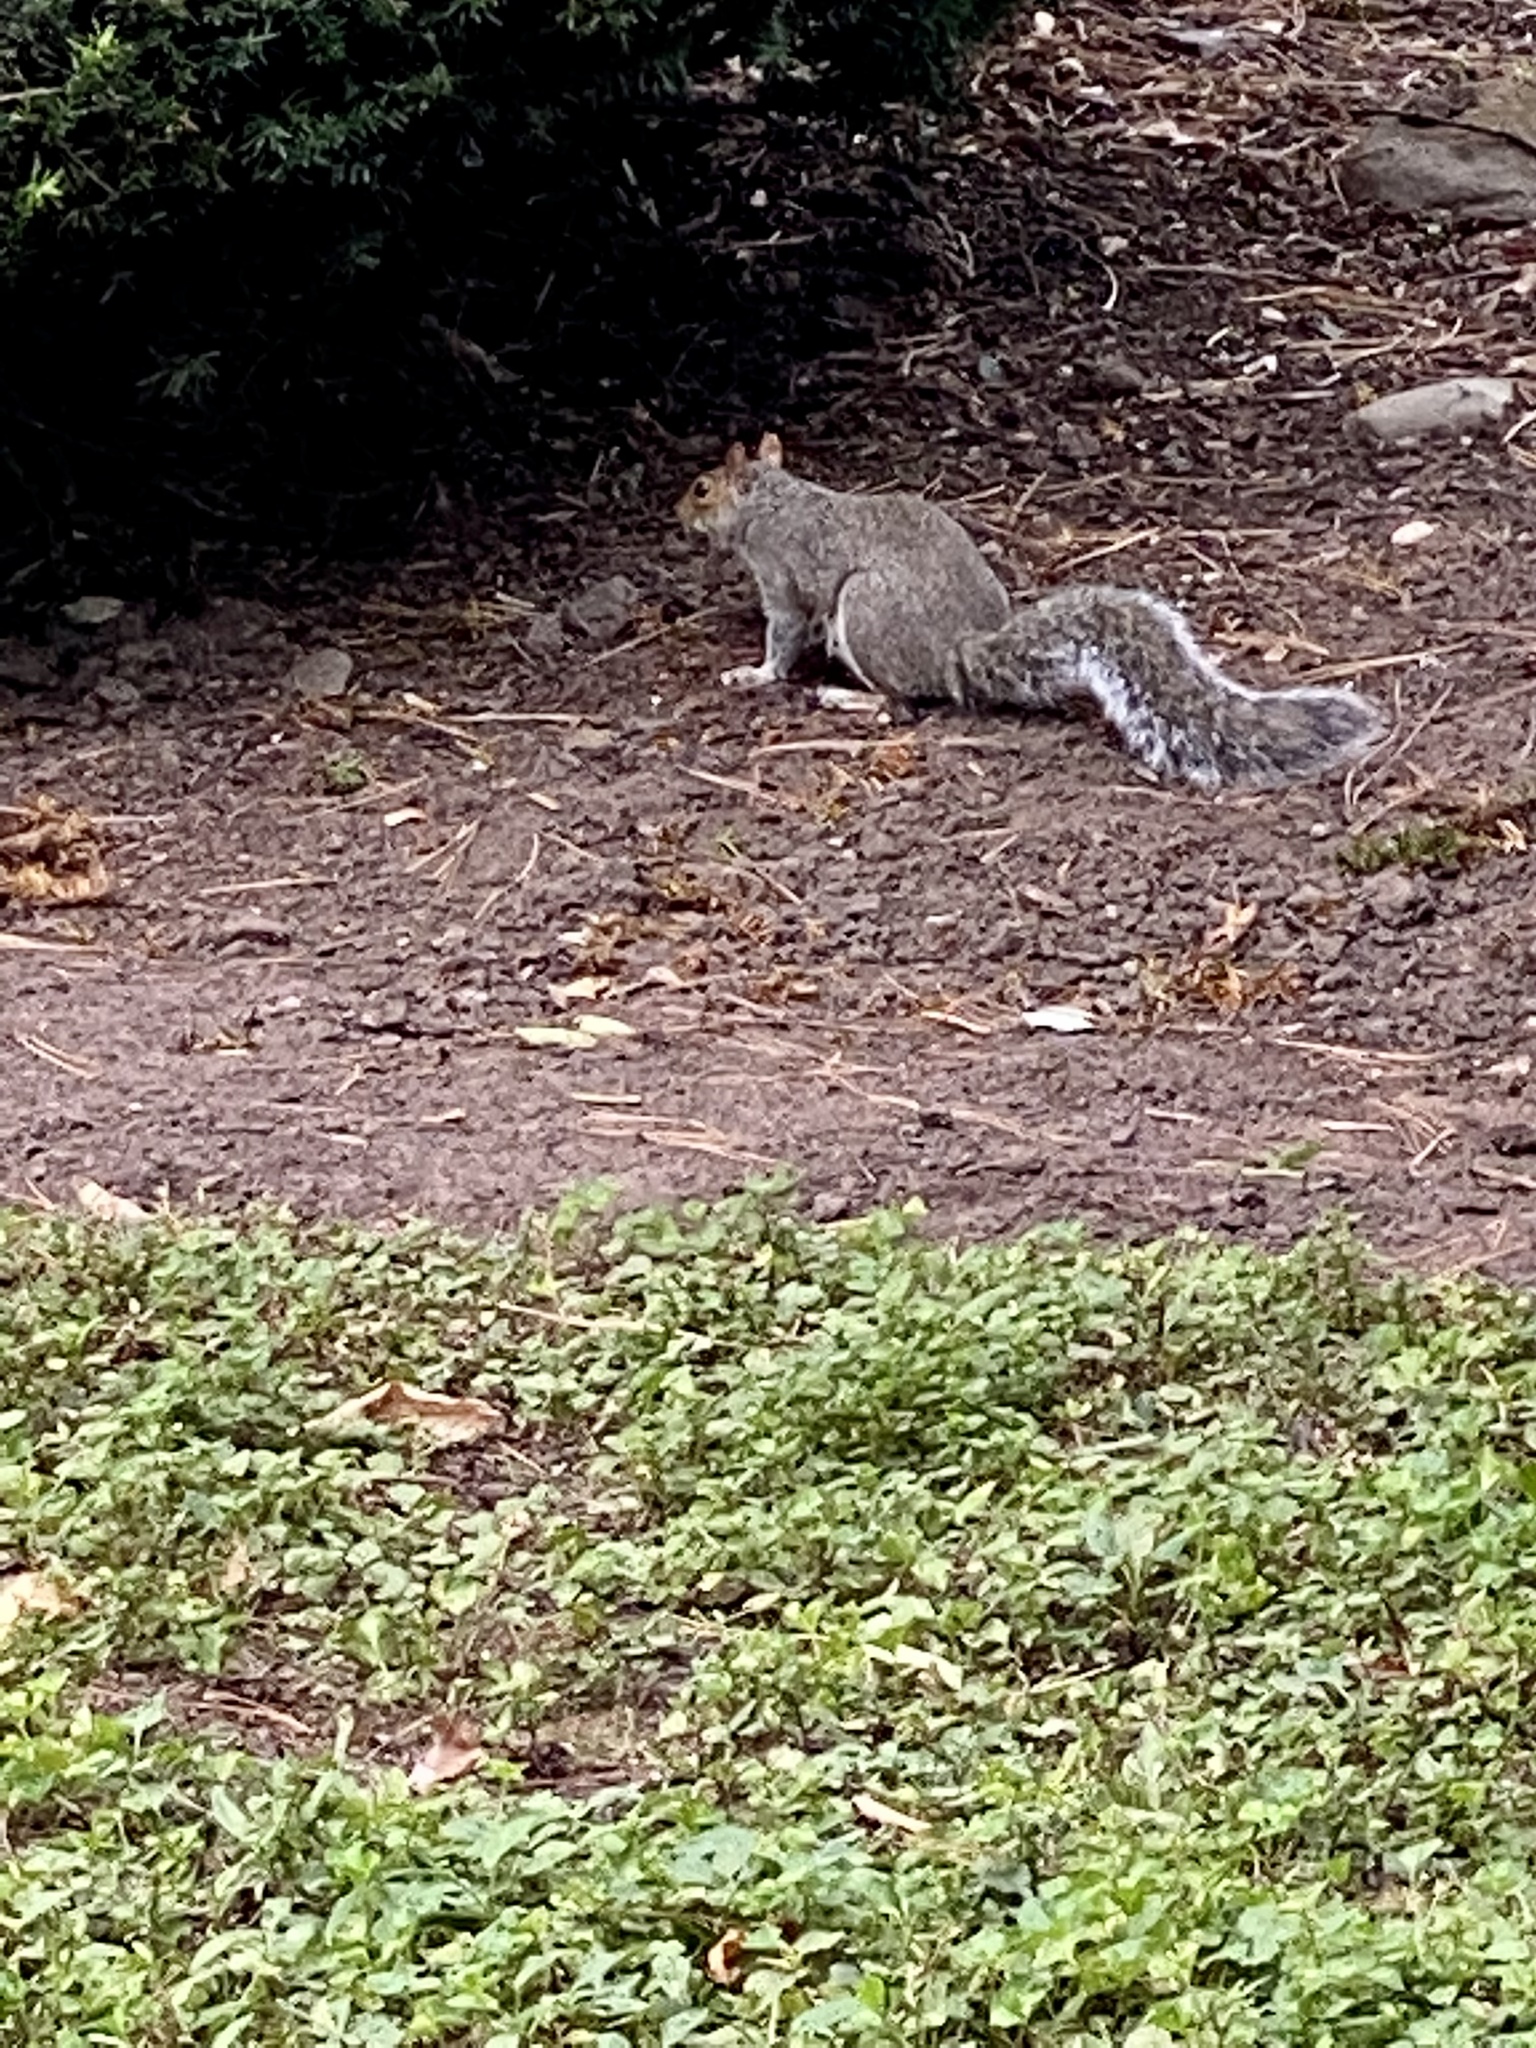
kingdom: Animalia
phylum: Chordata
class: Mammalia
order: Rodentia
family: Sciuridae
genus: Sciurus
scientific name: Sciurus carolinensis
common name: Eastern gray squirrel
